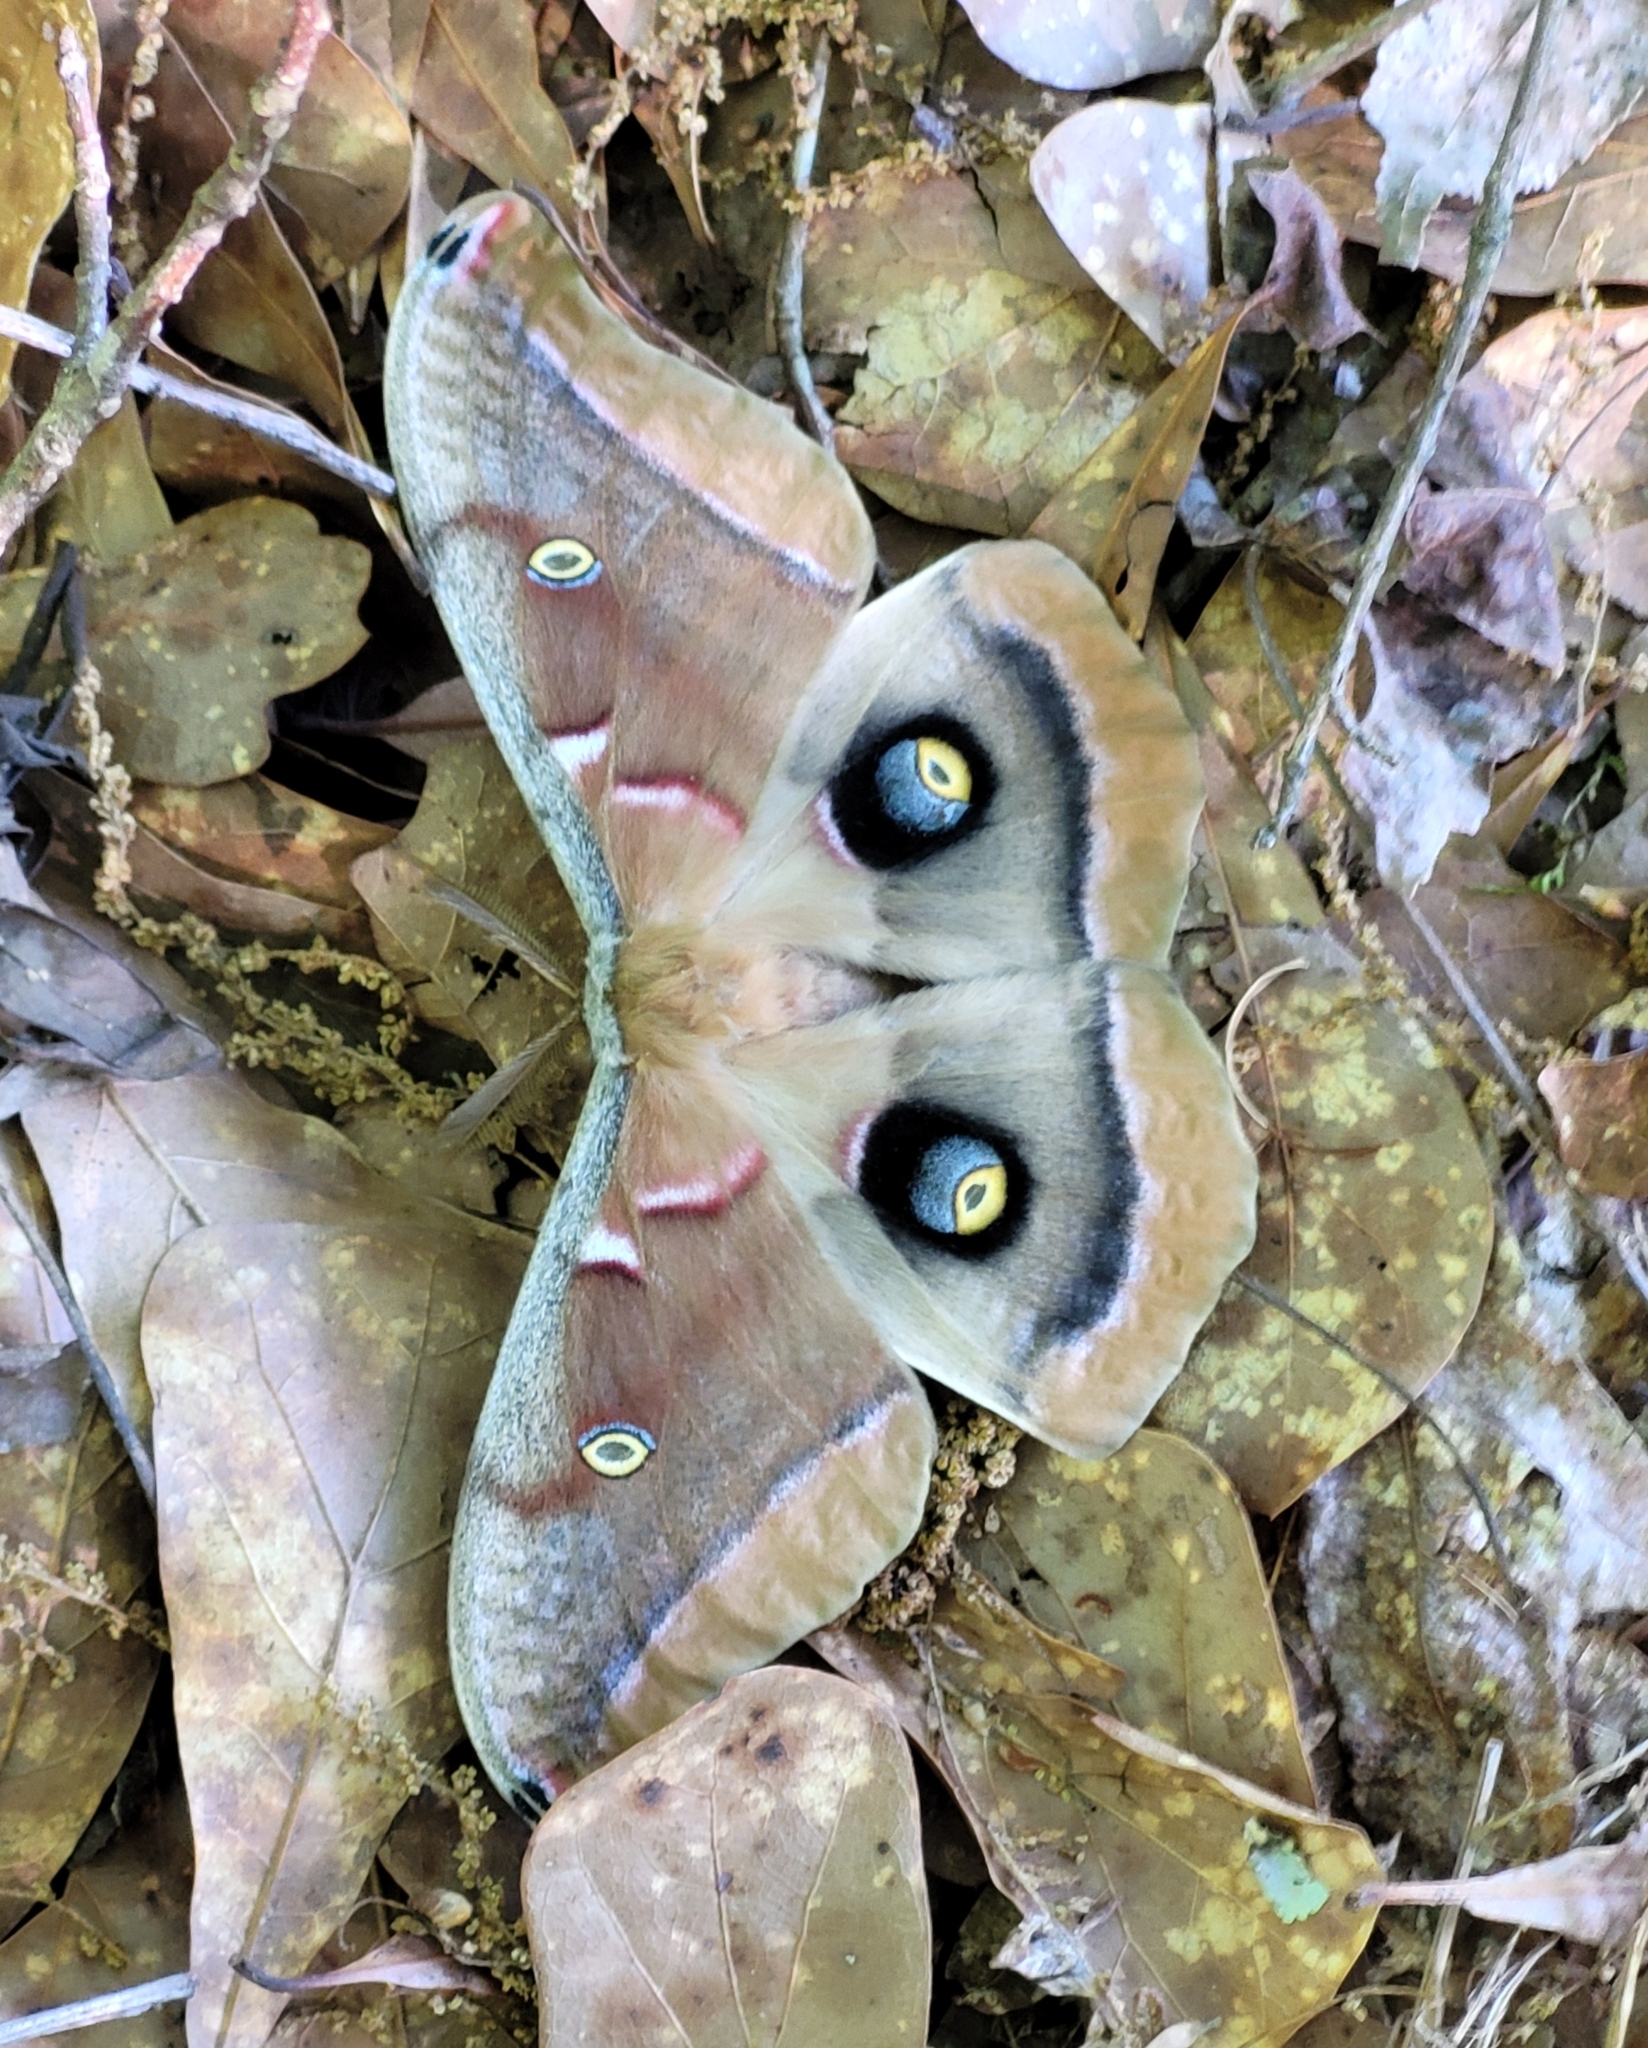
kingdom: Animalia
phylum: Arthropoda
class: Insecta
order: Lepidoptera
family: Saturniidae
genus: Antheraea
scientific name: Antheraea polyphemus
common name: Polyphemus moth
